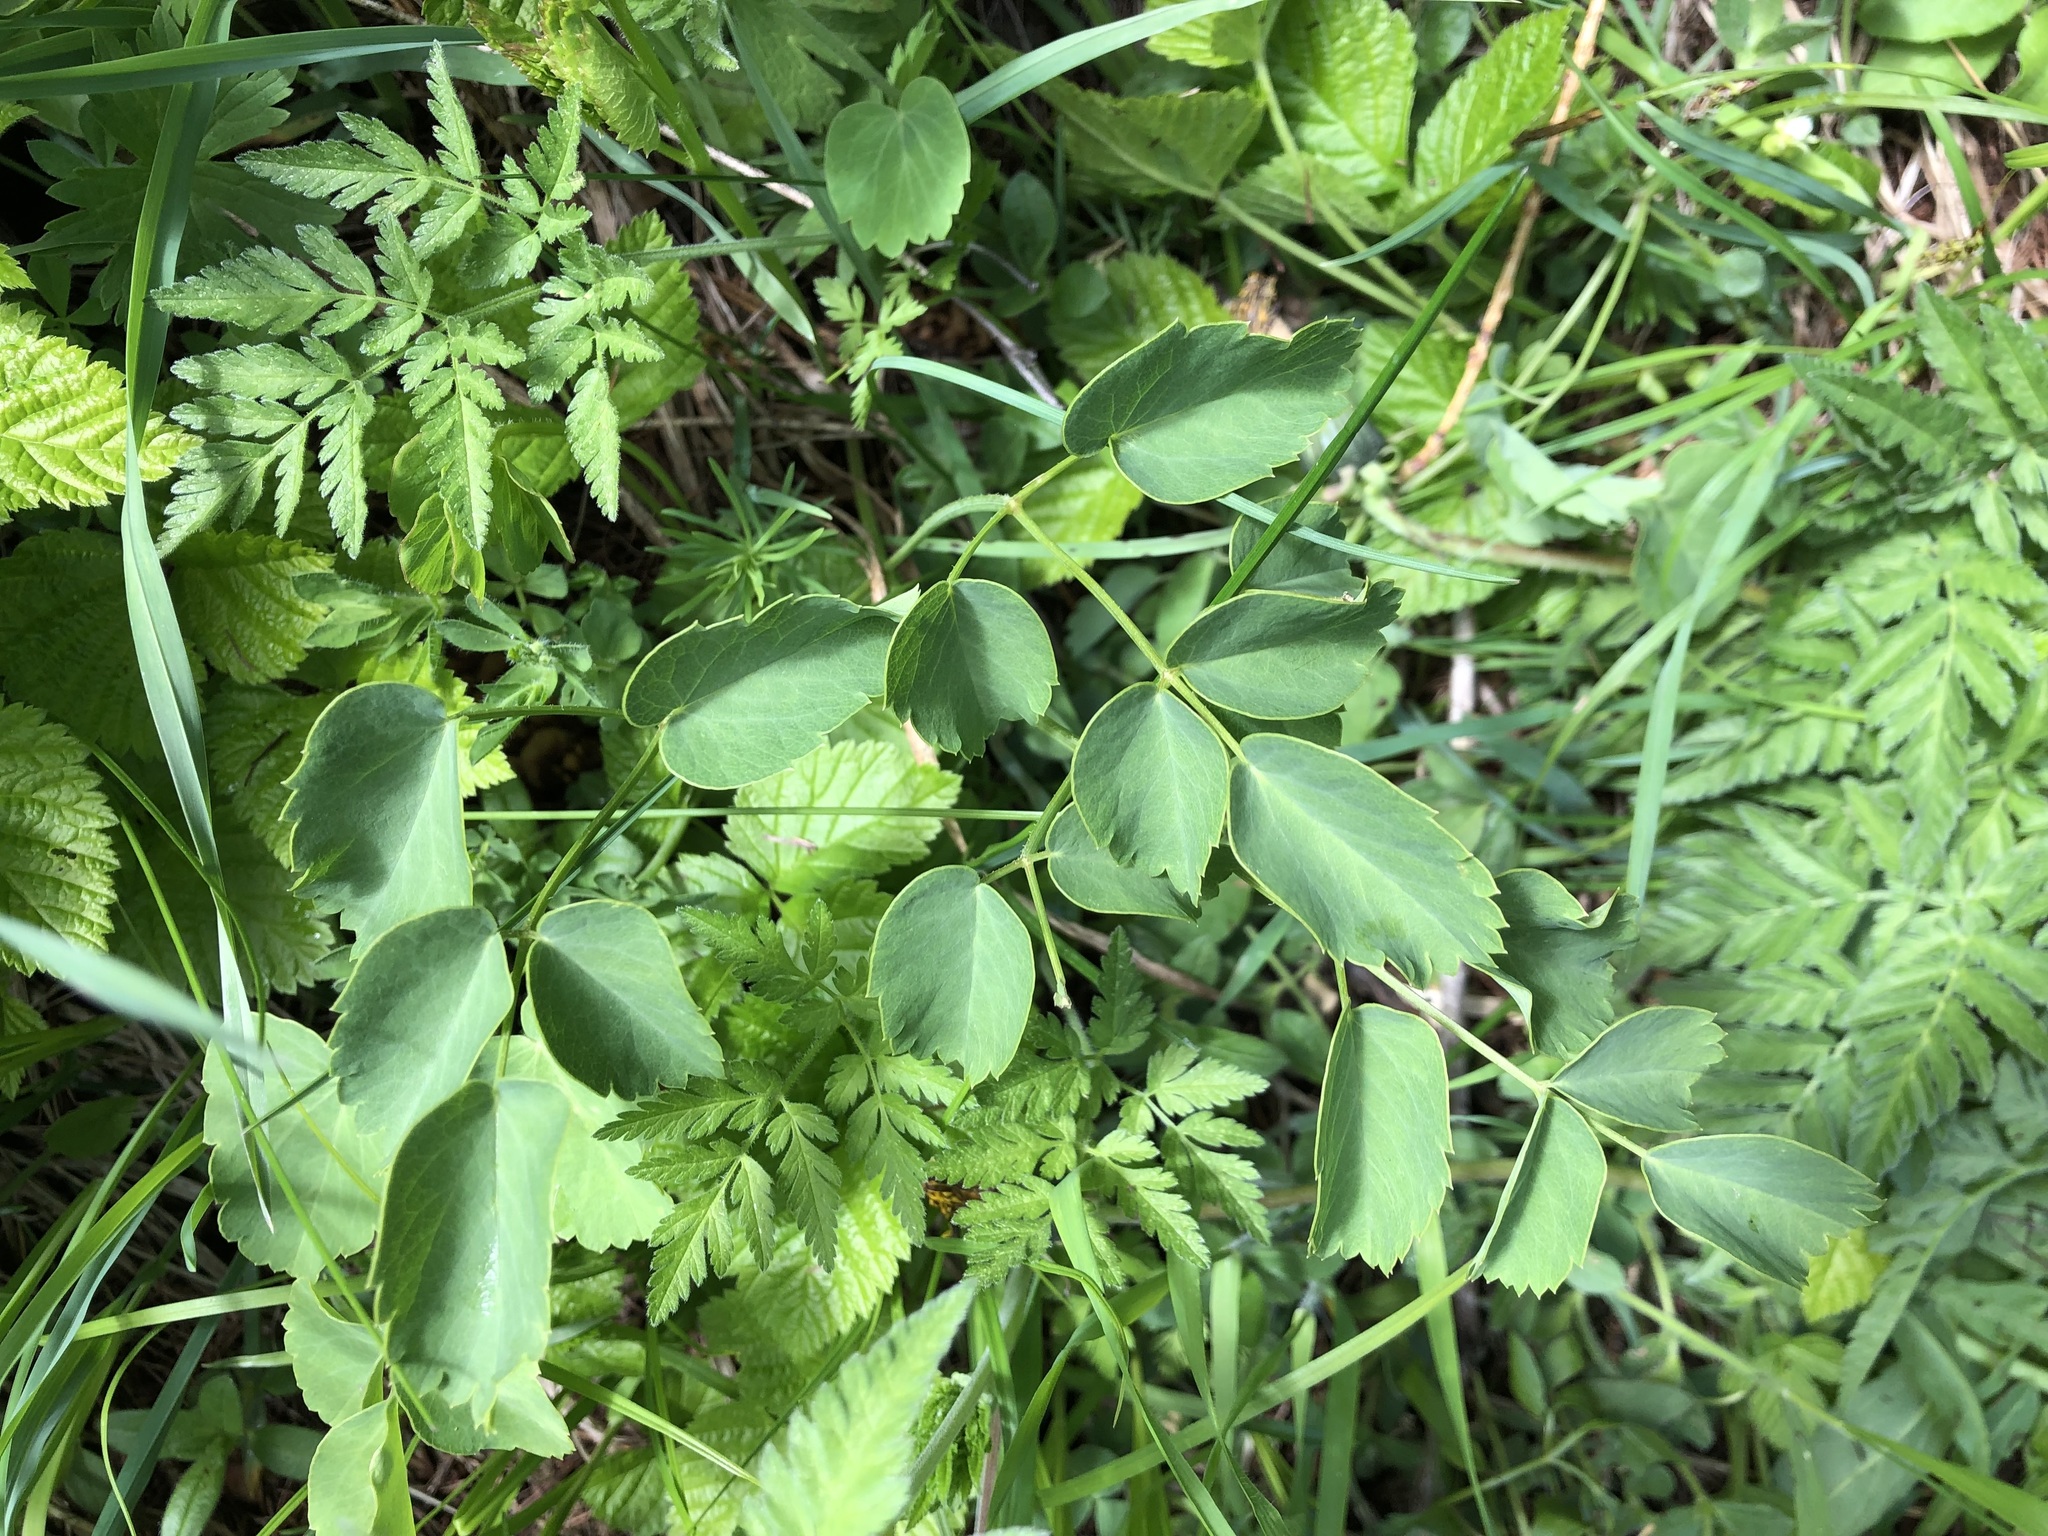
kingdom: Plantae
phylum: Tracheophyta
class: Magnoliopsida
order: Apiales
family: Apiaceae
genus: Laserpitium
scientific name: Laserpitium latifolium
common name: Broadleaf sermountain
